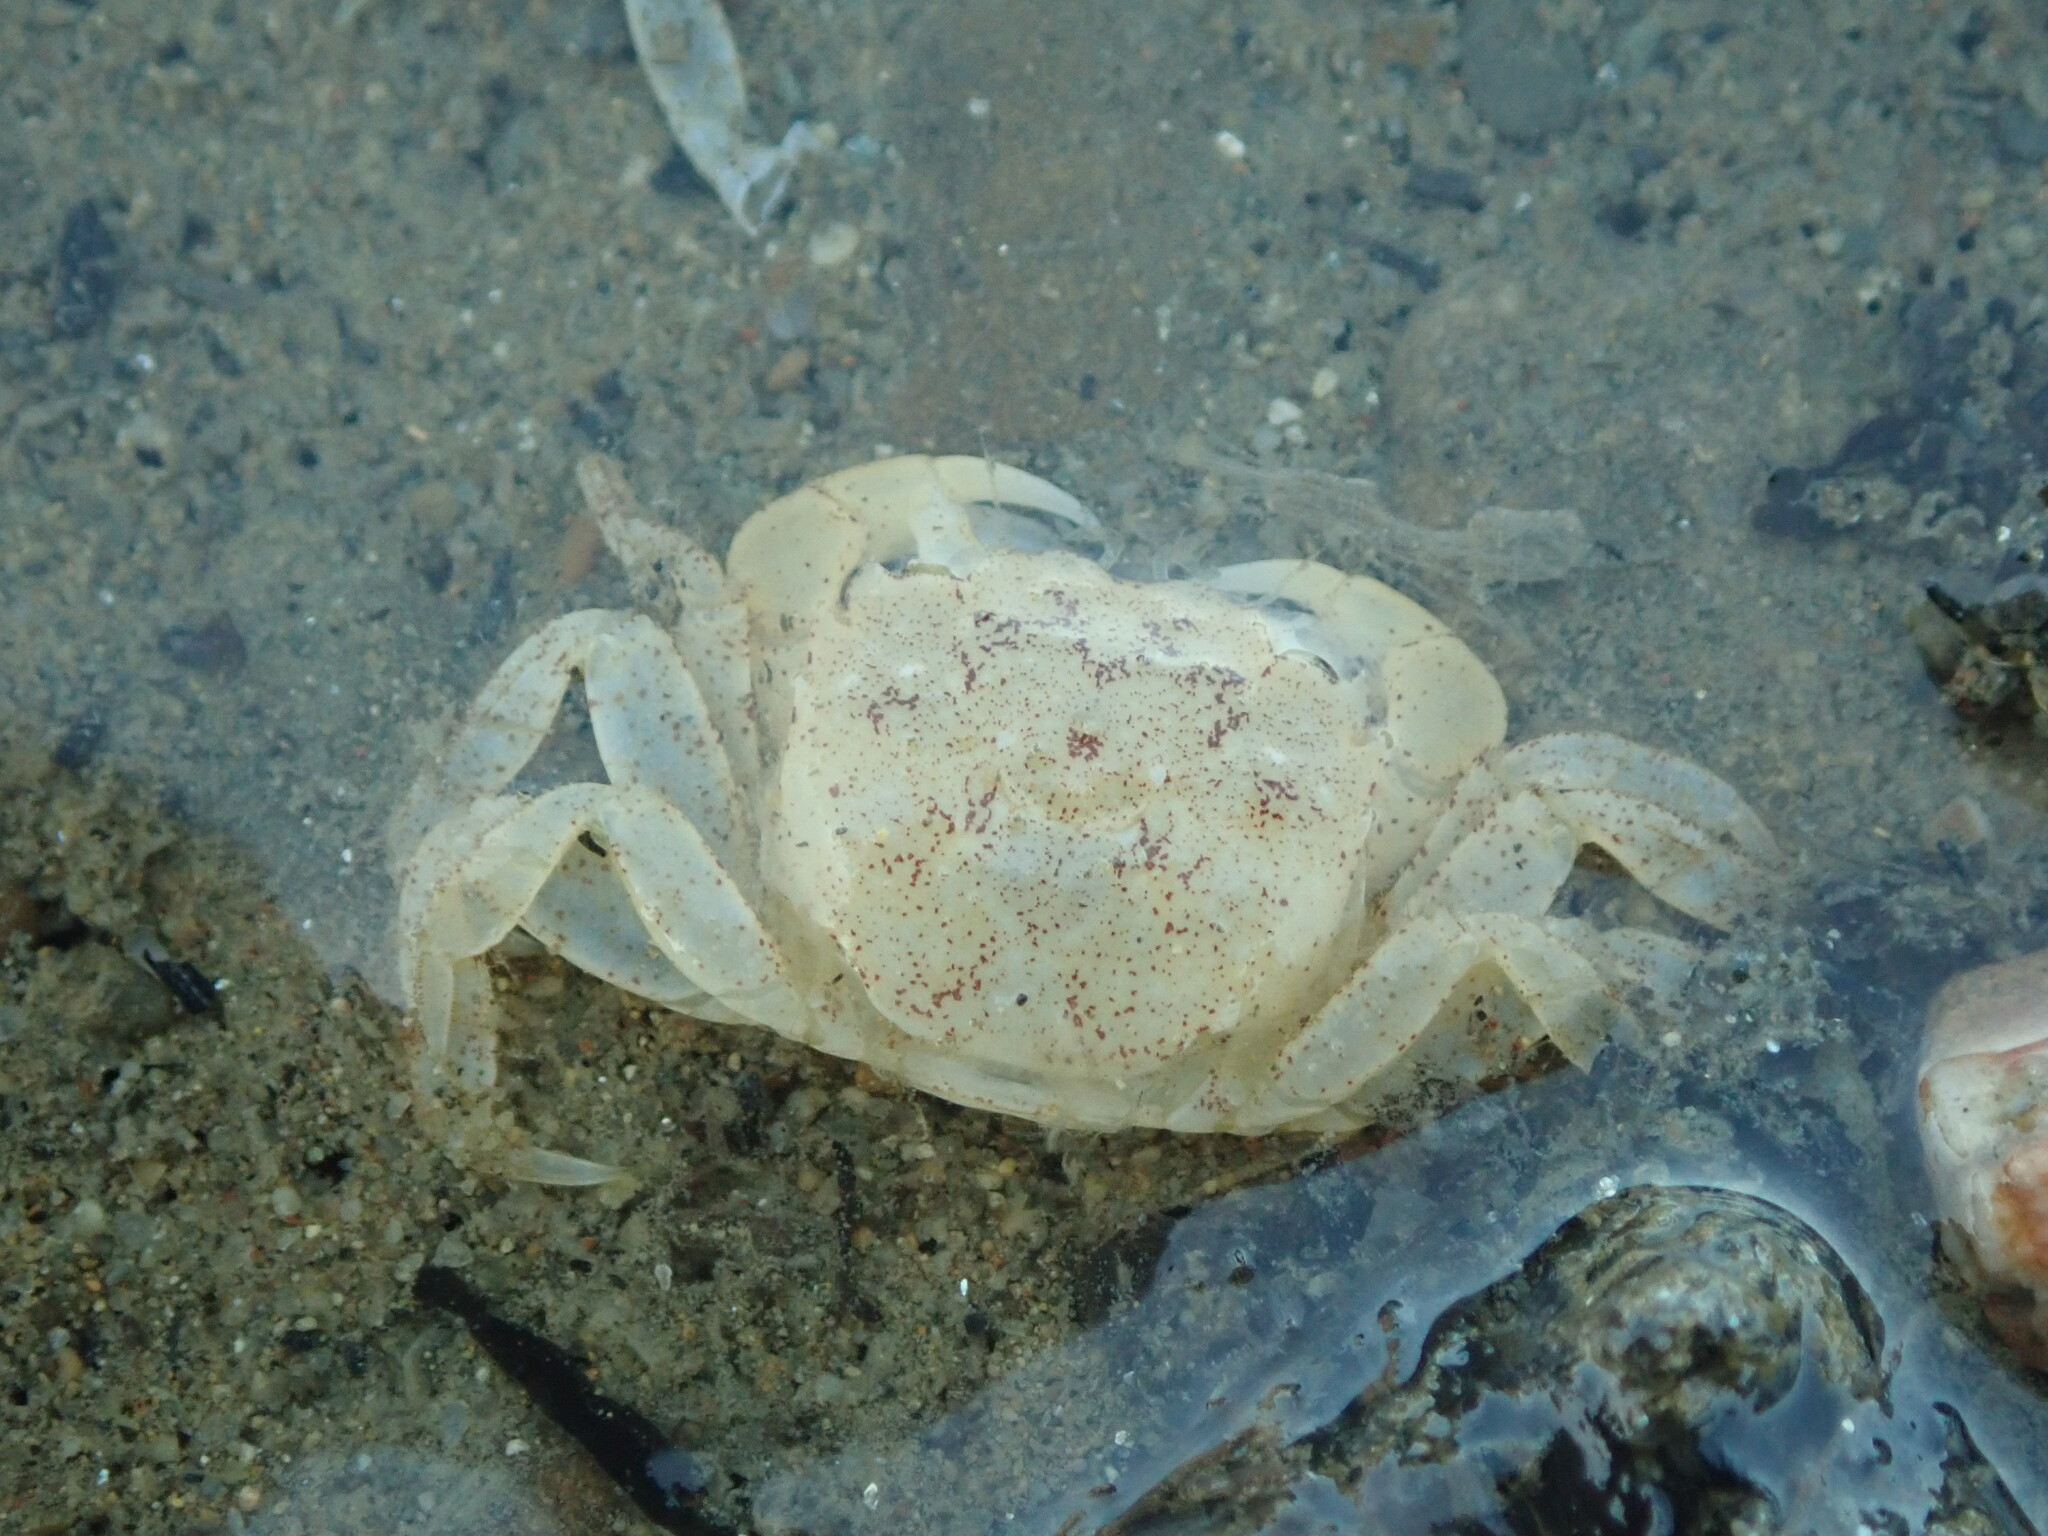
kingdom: Animalia
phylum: Arthropoda
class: Malacostraca
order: Decapoda
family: Varunidae
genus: Hemigrapsus
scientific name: Hemigrapsus oregonensis
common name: Yellow shore crab
